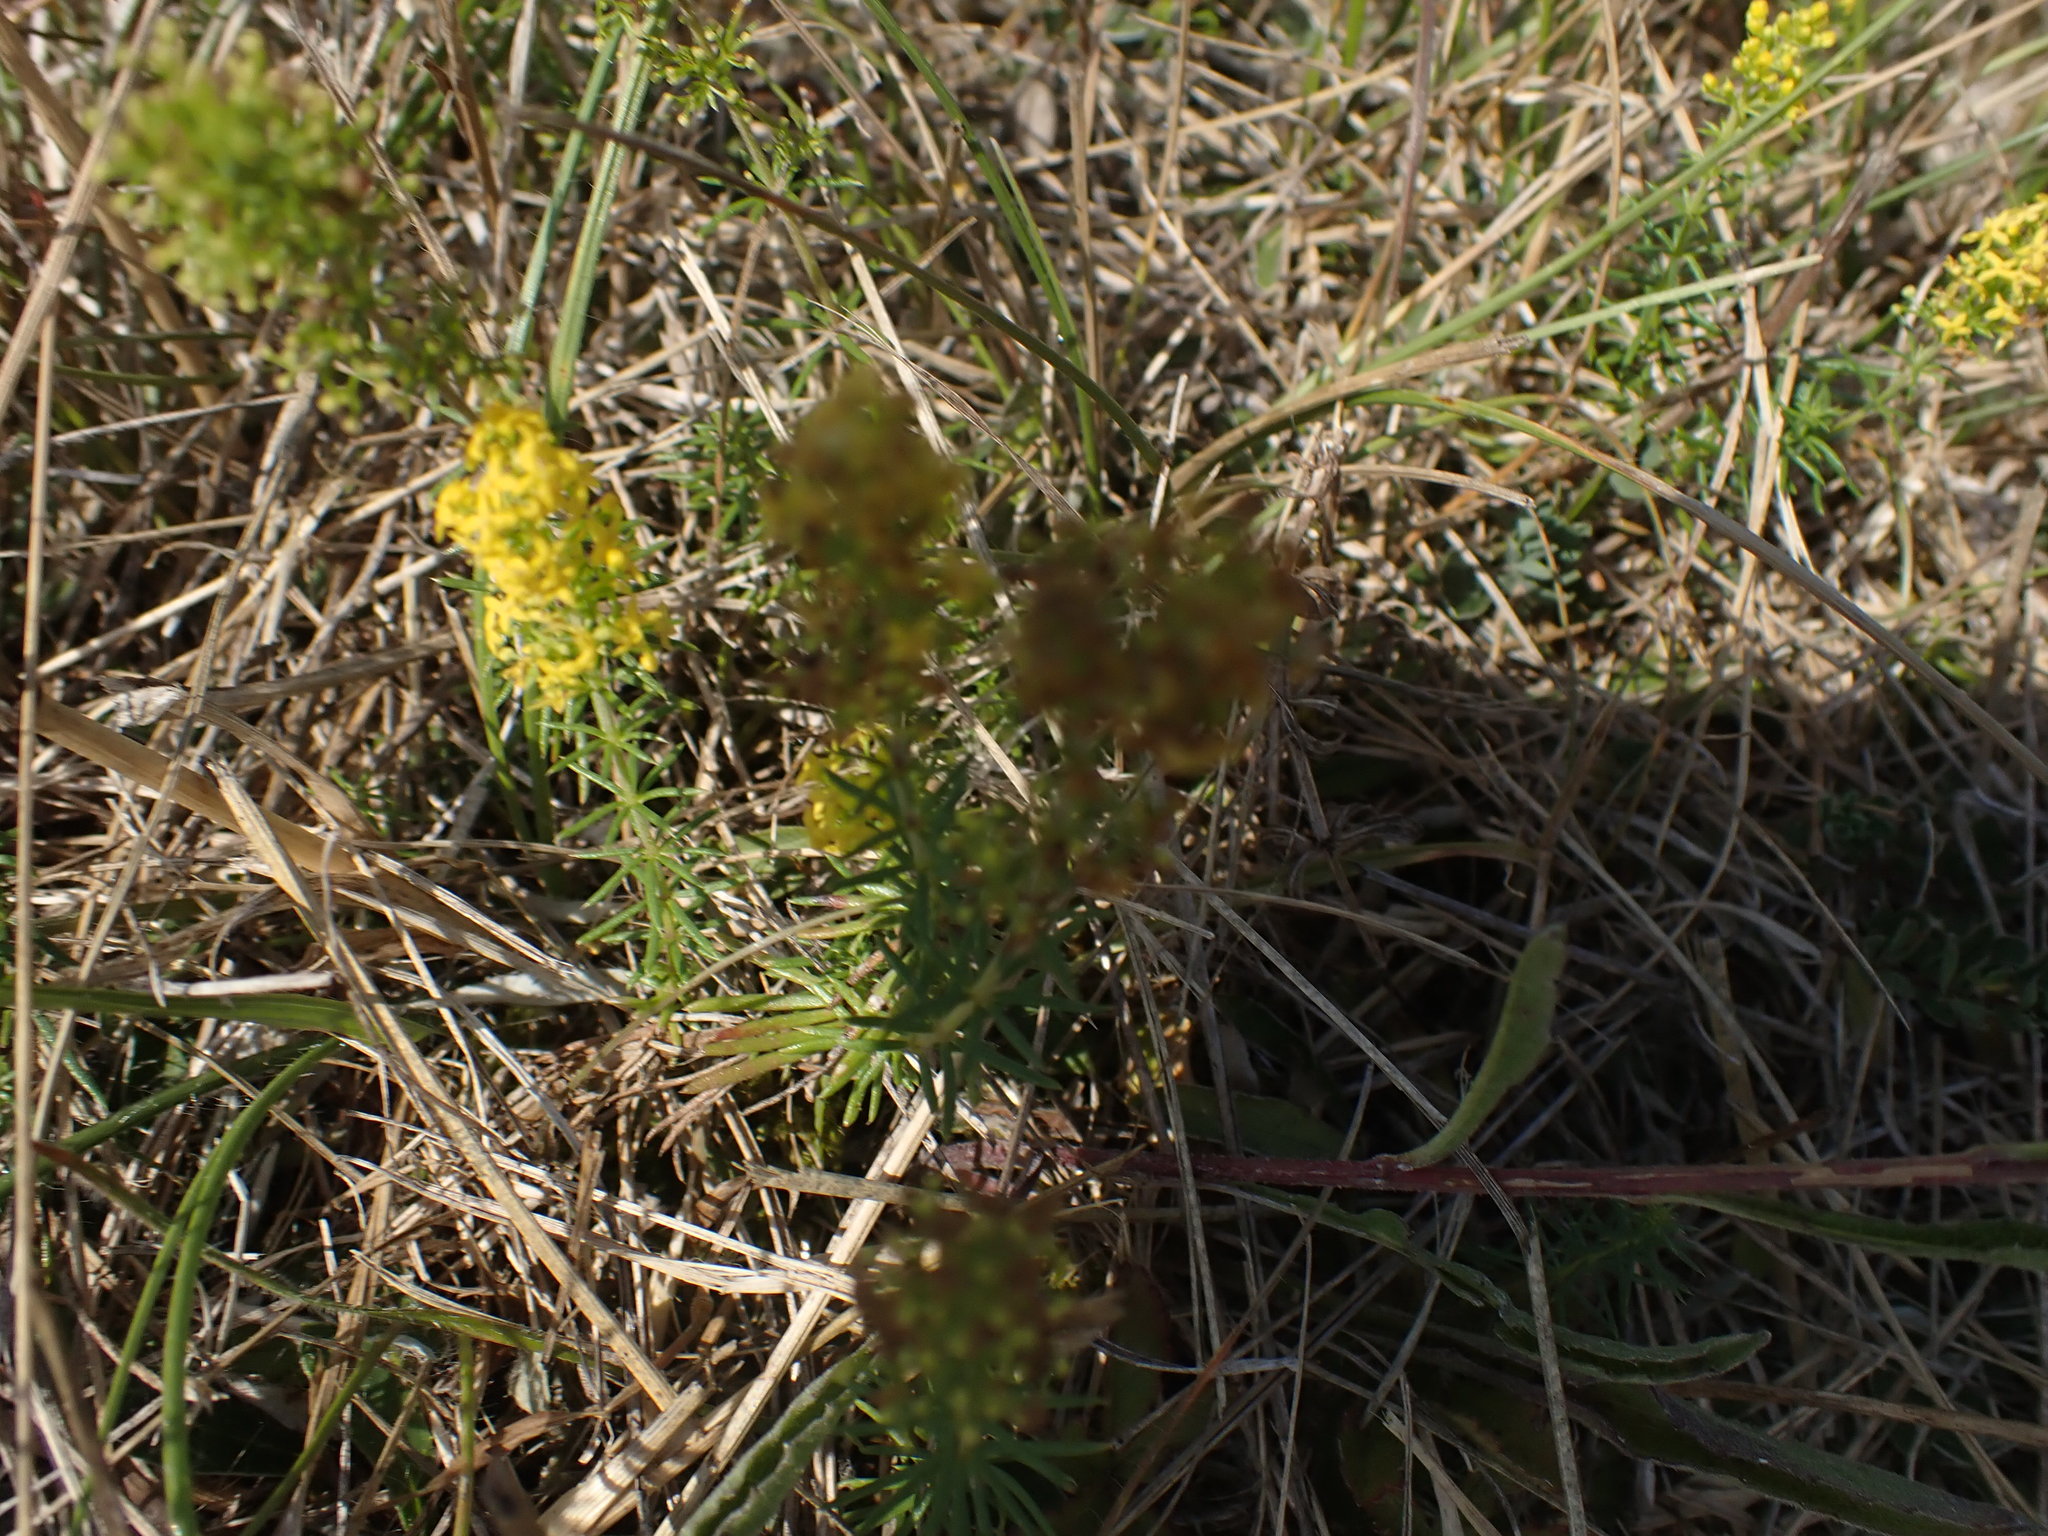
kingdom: Plantae
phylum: Tracheophyta
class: Magnoliopsida
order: Gentianales
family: Rubiaceae
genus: Galium
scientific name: Galium verum
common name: Lady's bedstraw
